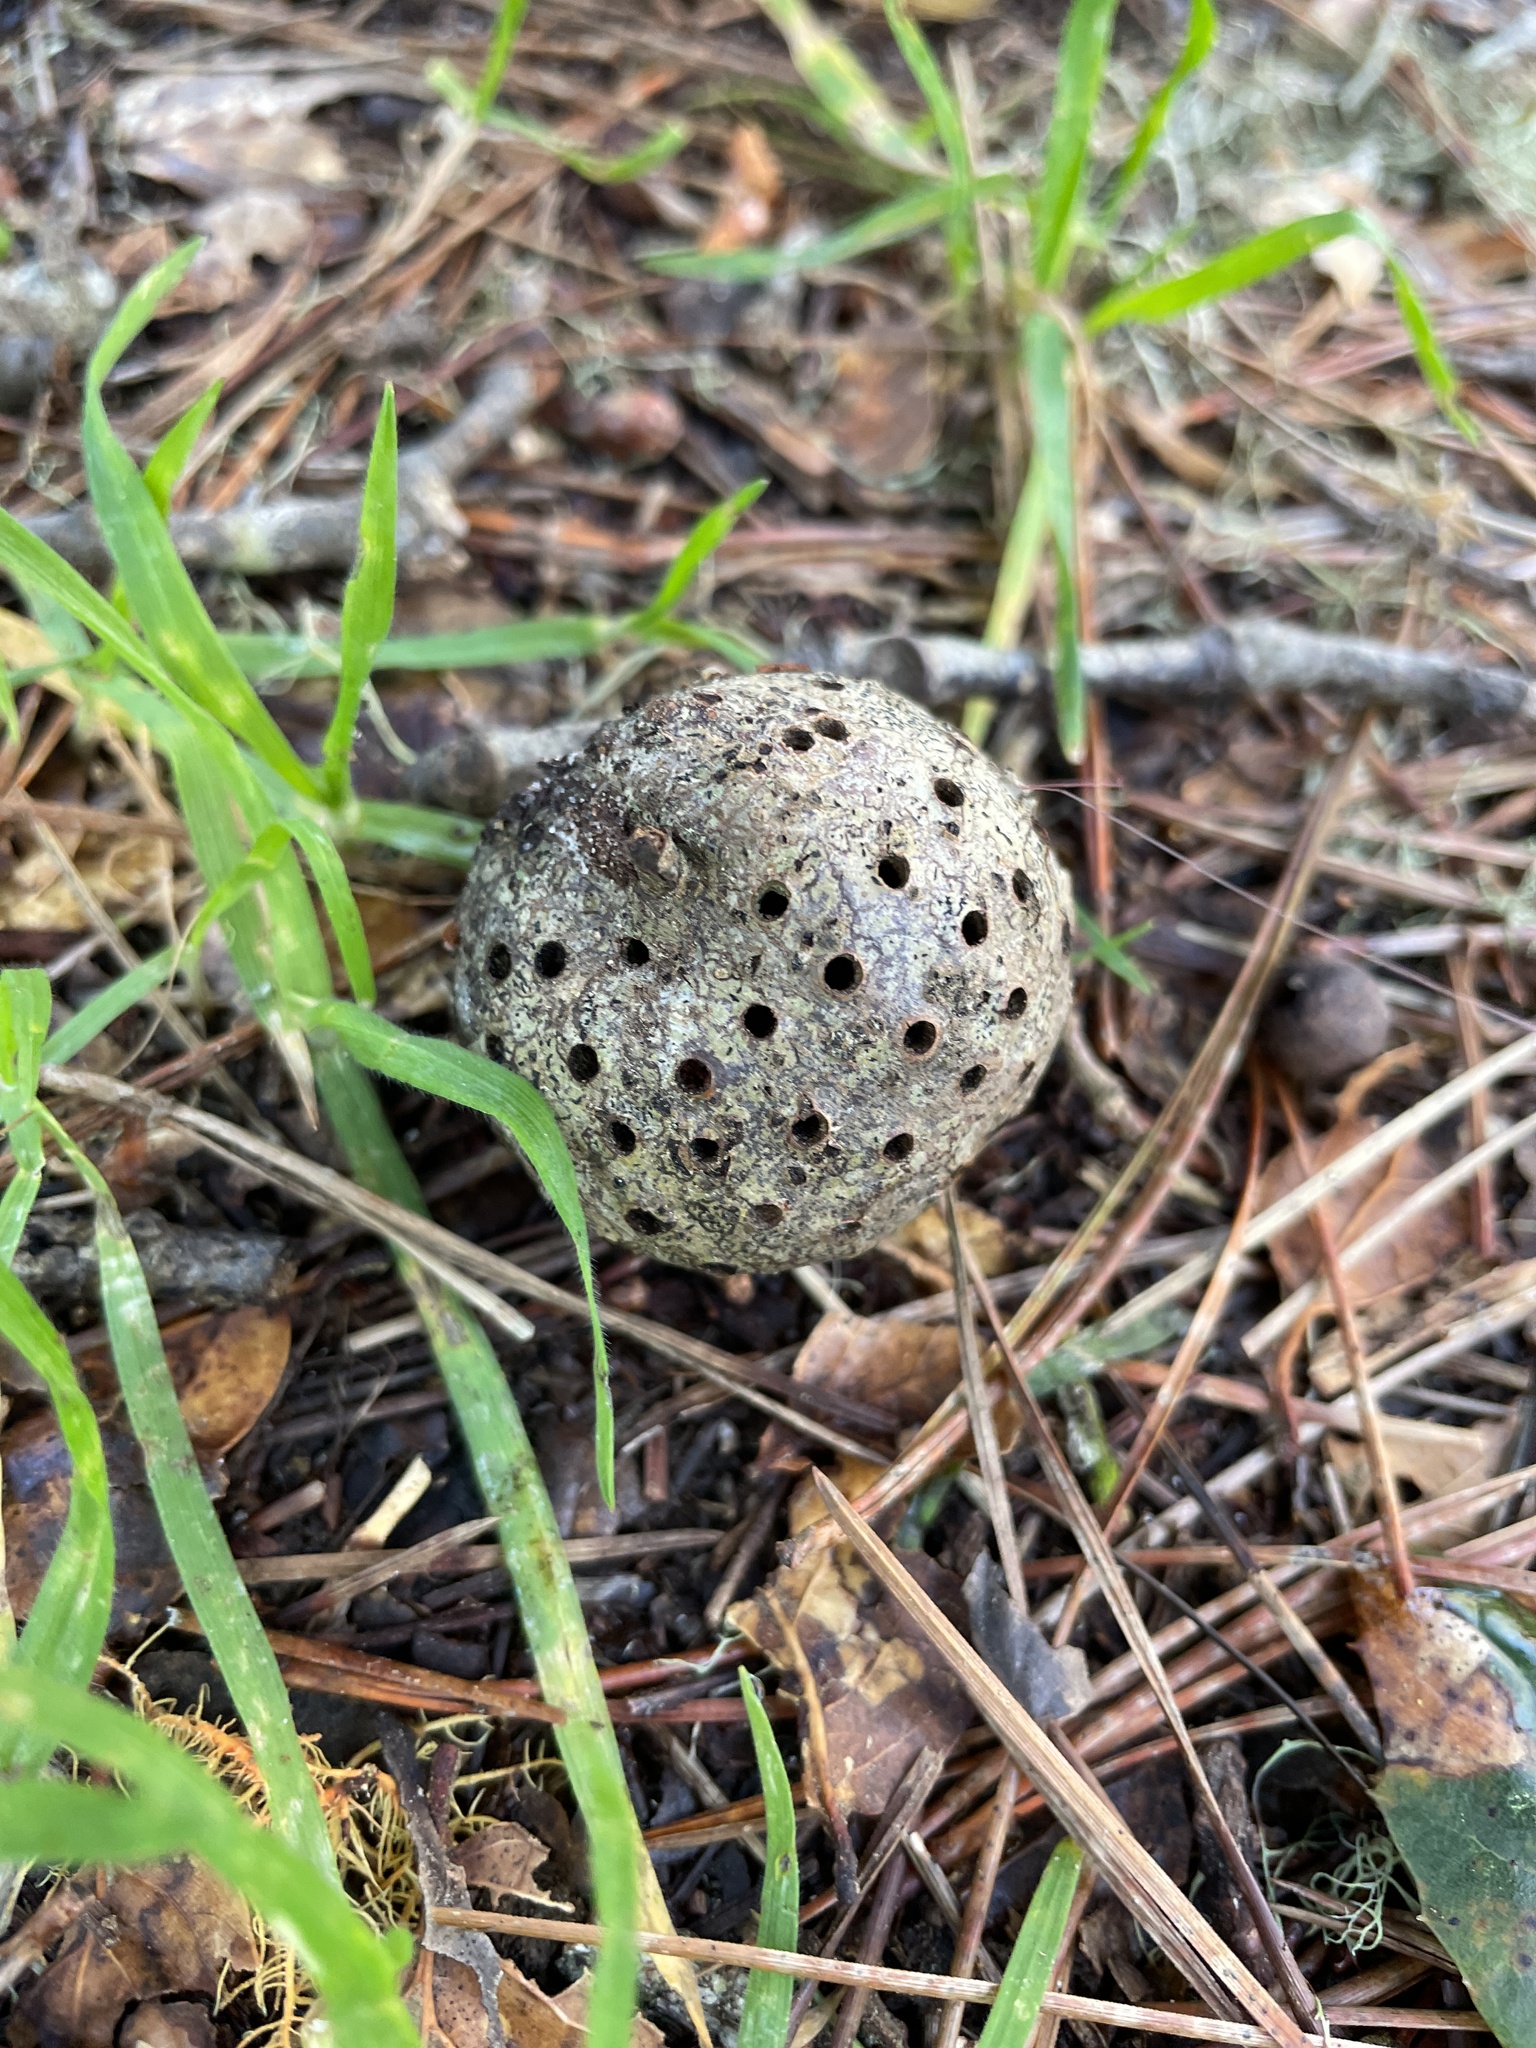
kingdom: Animalia
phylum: Arthropoda
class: Insecta
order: Hymenoptera
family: Cynipidae
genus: Callirhytis
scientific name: Callirhytis
